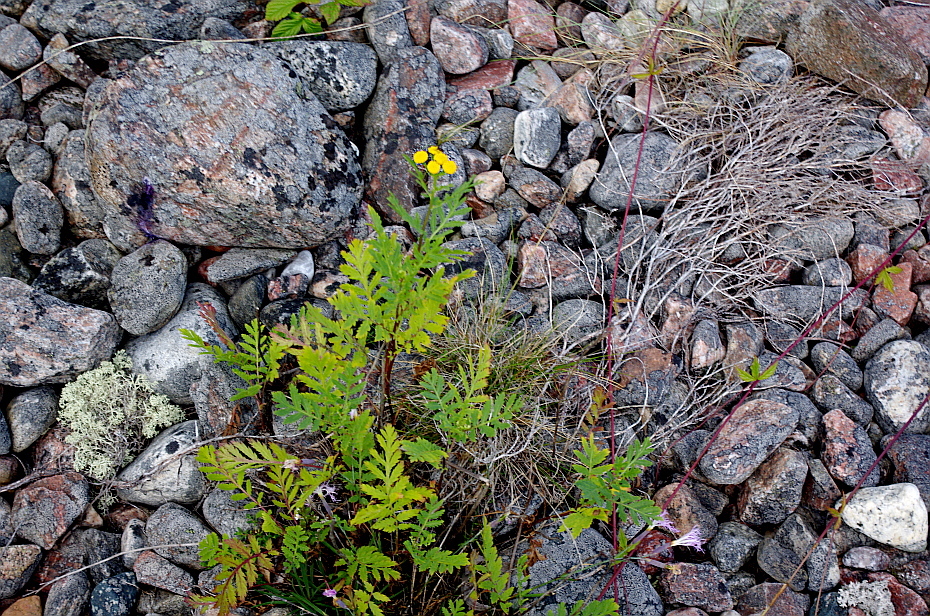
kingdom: Plantae
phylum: Tracheophyta
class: Magnoliopsida
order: Asterales
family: Asteraceae
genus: Tanacetum
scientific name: Tanacetum vulgare
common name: Common tansy
